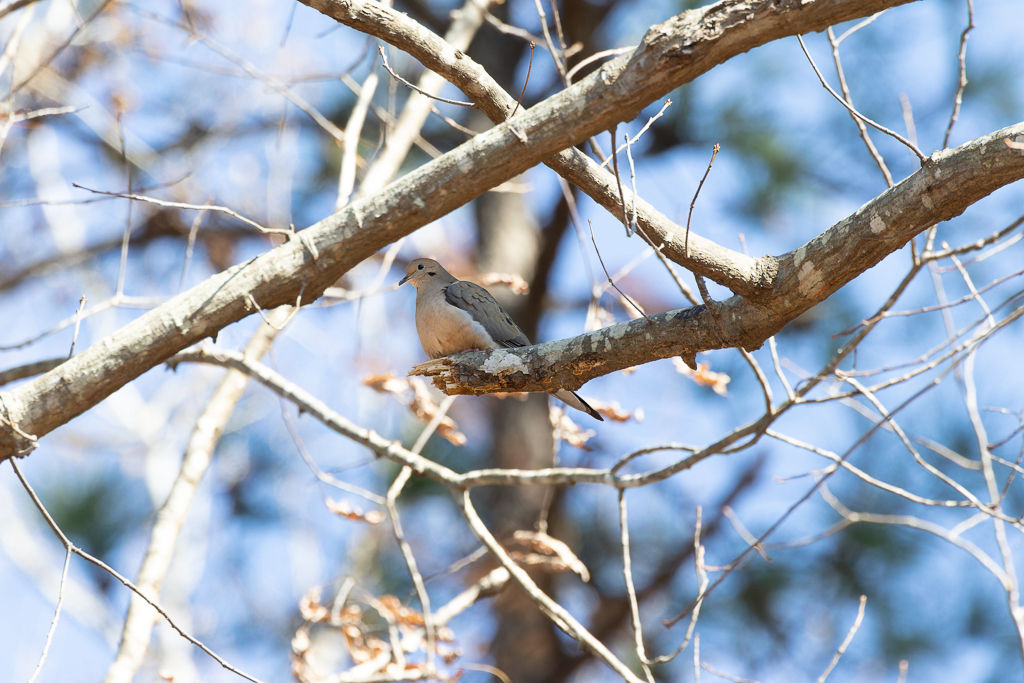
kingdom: Animalia
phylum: Chordata
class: Aves
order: Columbiformes
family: Columbidae
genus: Zenaida
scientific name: Zenaida macroura
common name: Mourning dove
